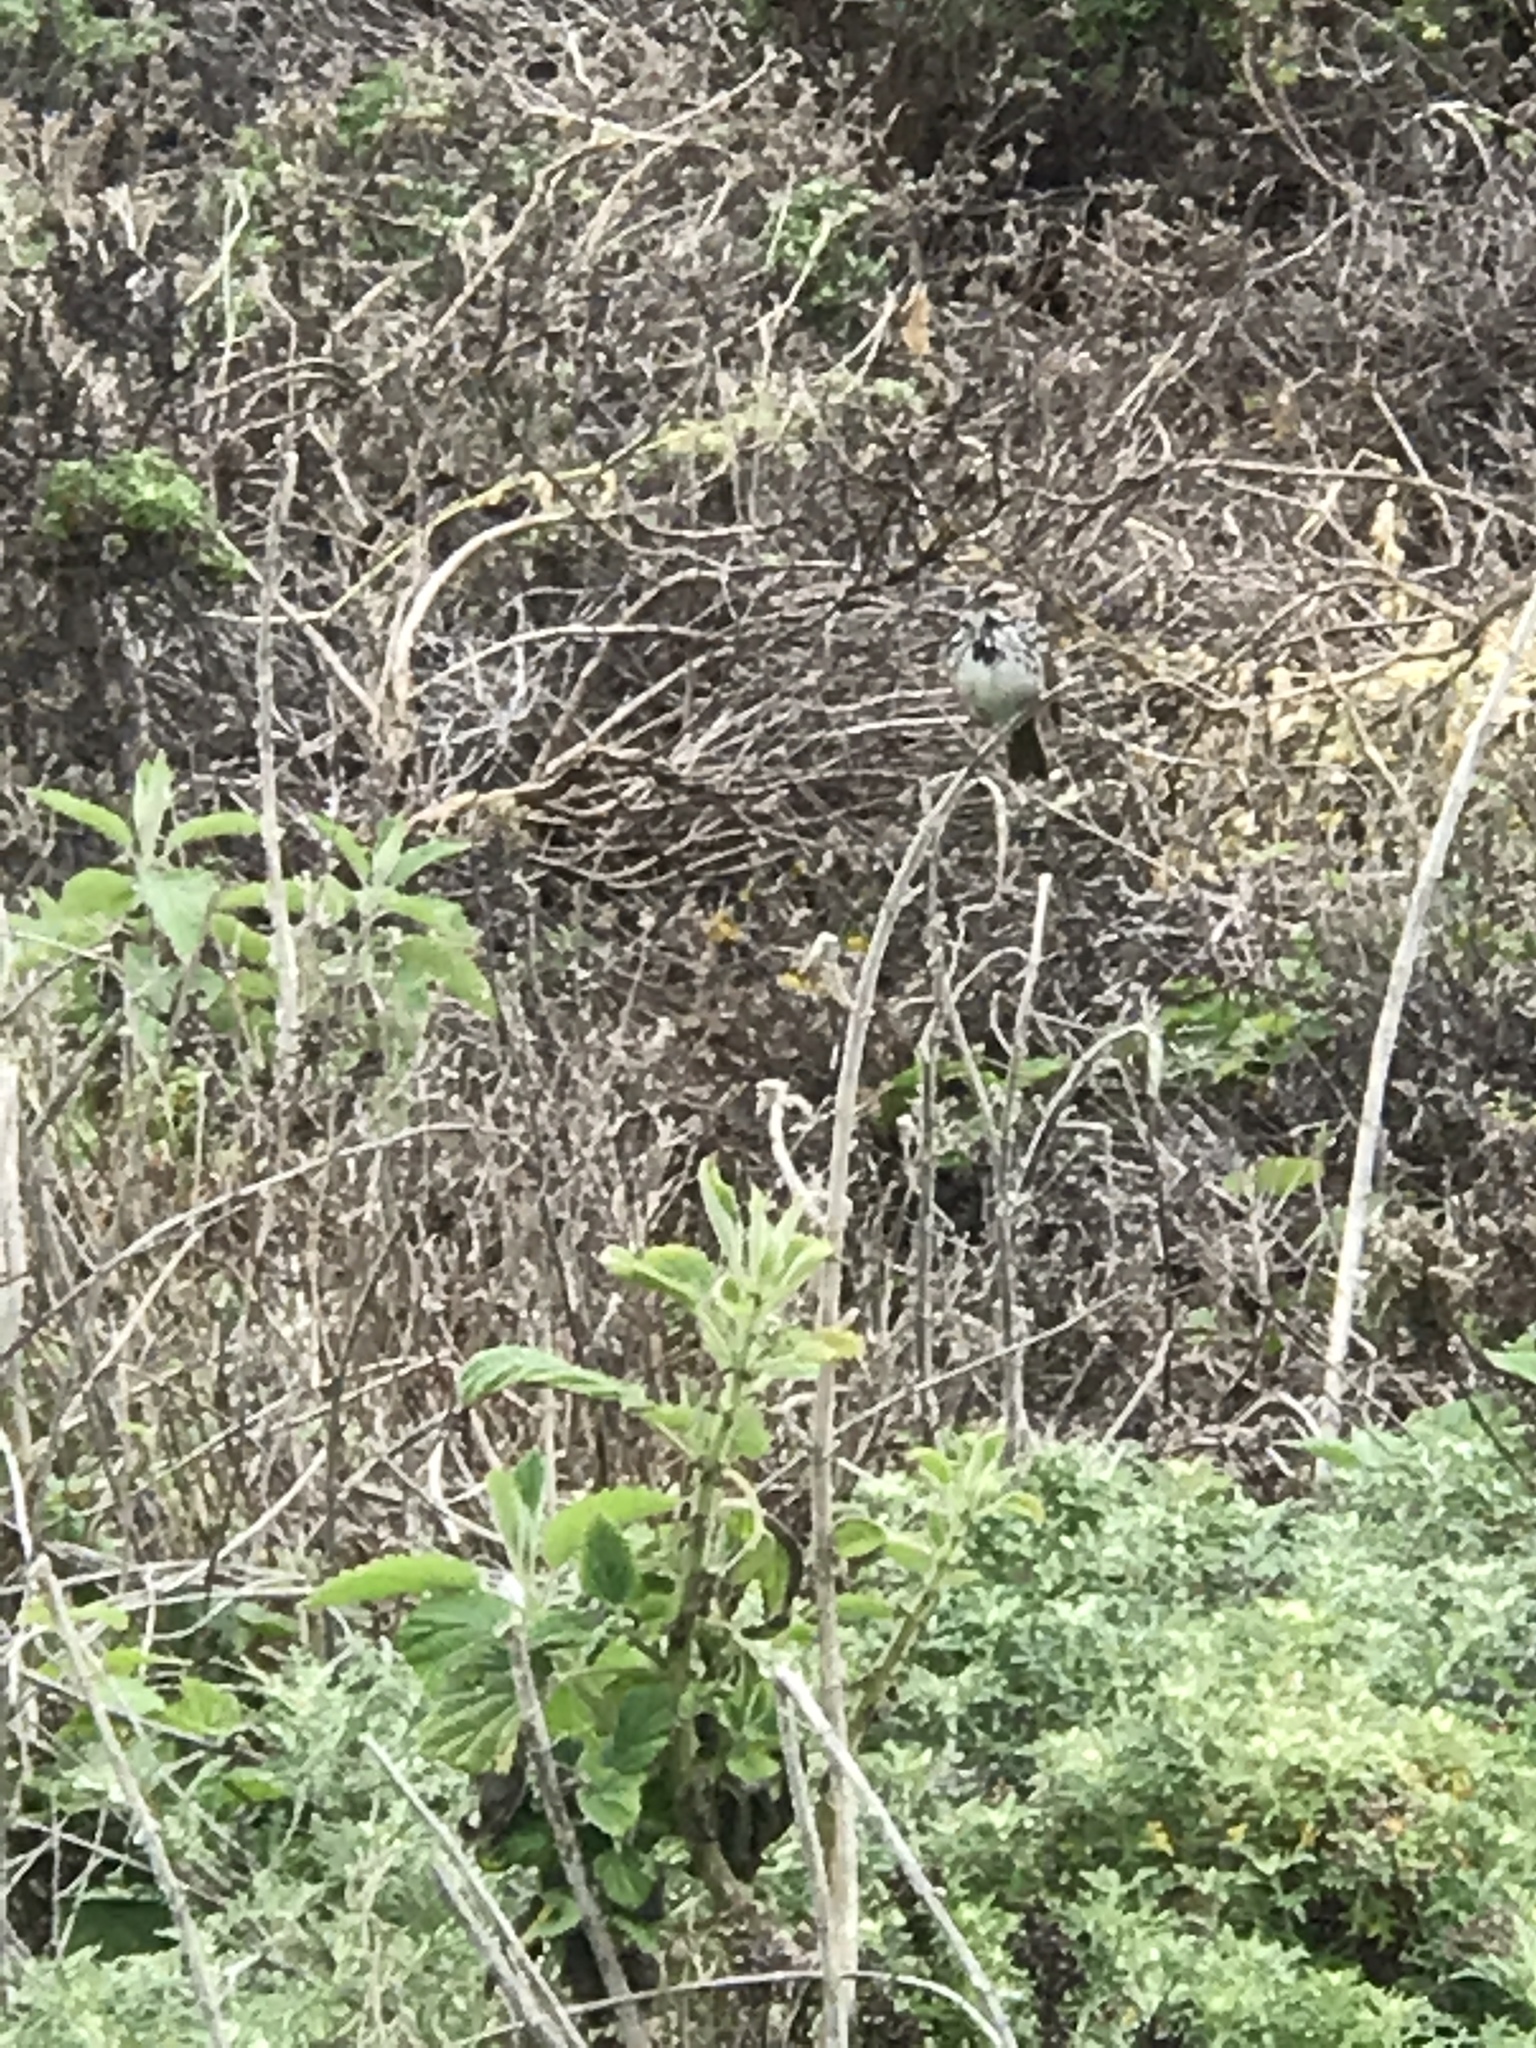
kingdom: Animalia
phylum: Chordata
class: Aves
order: Passeriformes
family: Passerellidae
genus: Melospiza
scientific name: Melospiza melodia
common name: Song sparrow
